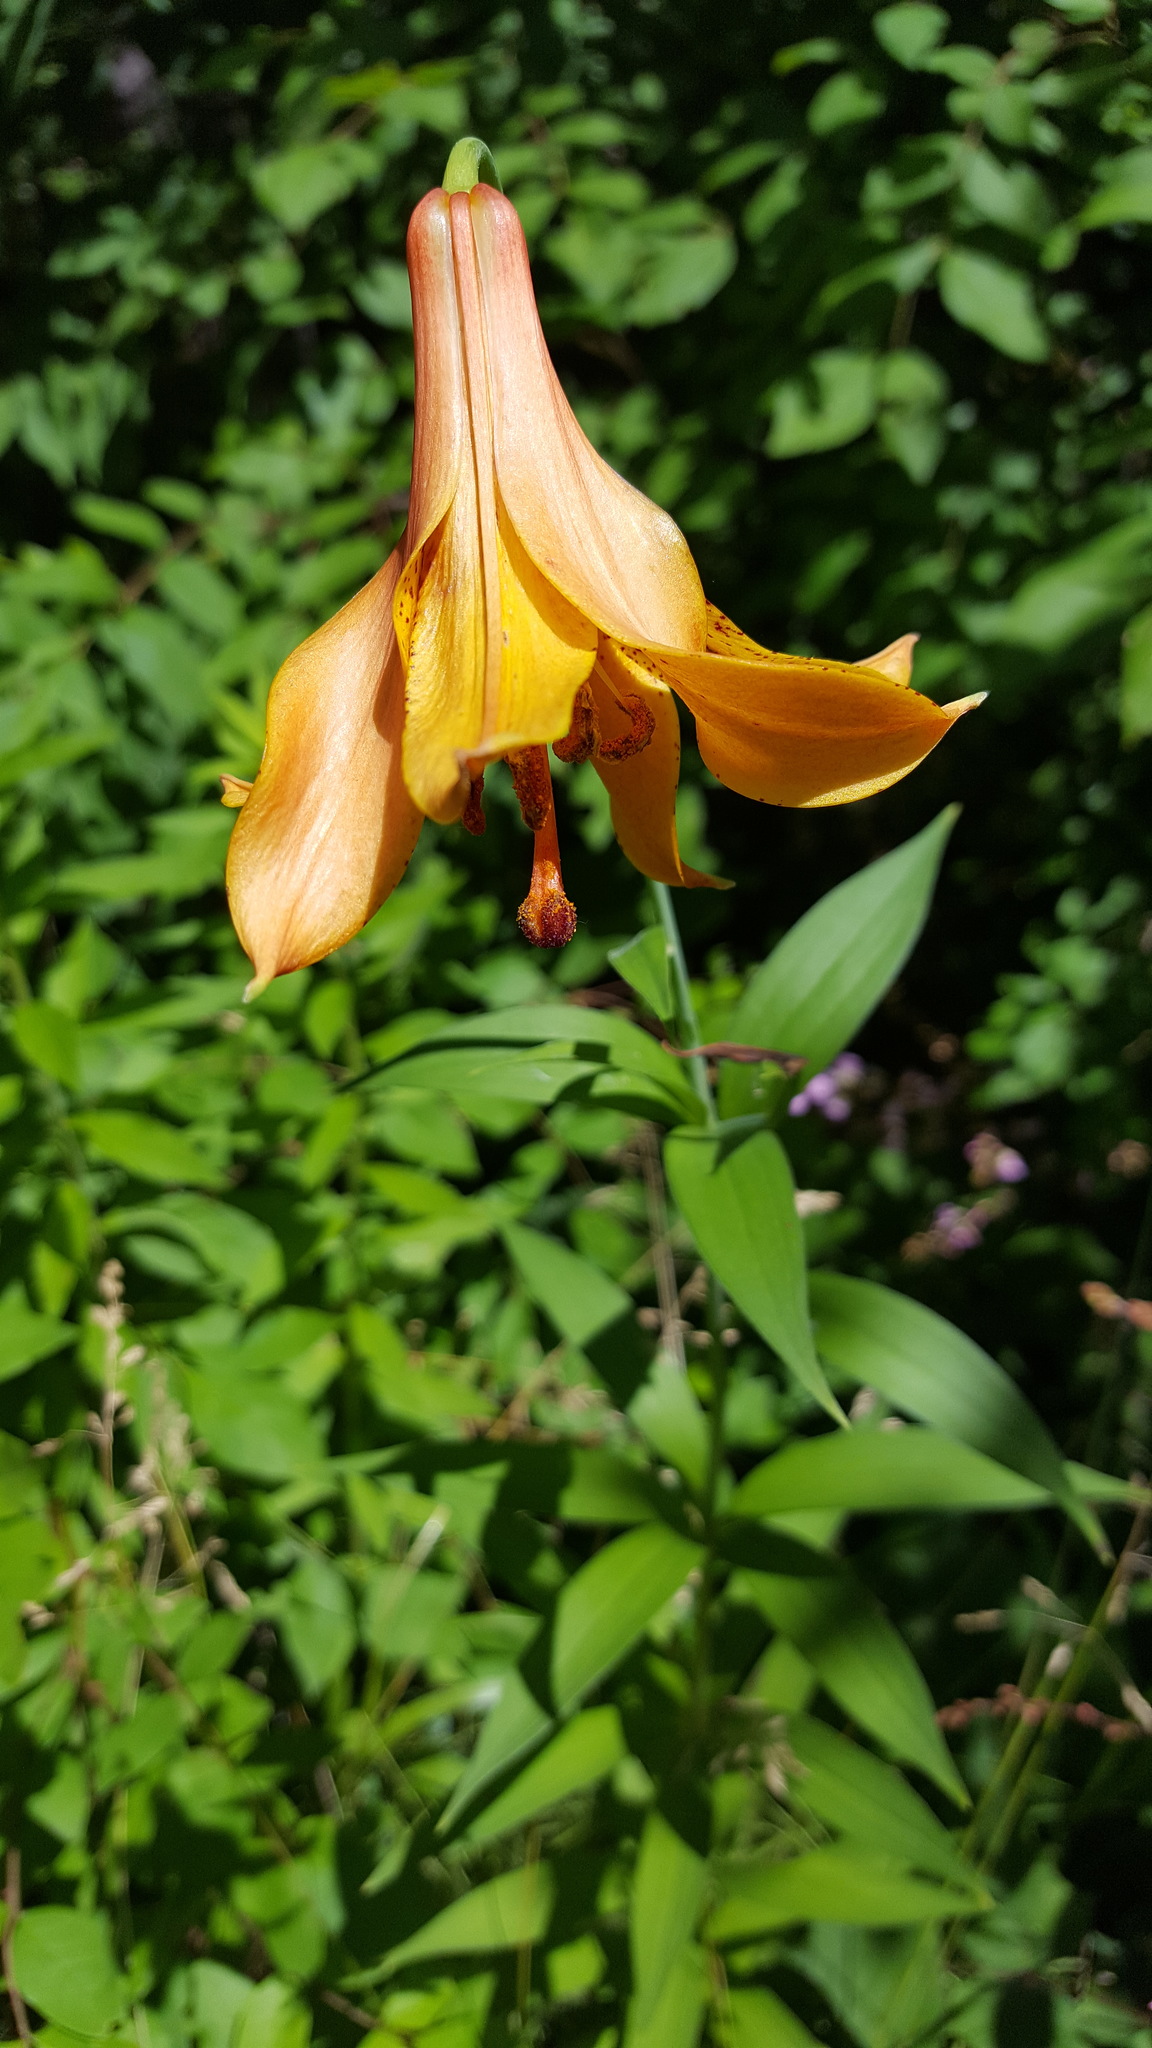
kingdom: Plantae
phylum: Tracheophyta
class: Liliopsida
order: Liliales
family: Liliaceae
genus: Lilium
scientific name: Lilium canadense
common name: Canada lily
